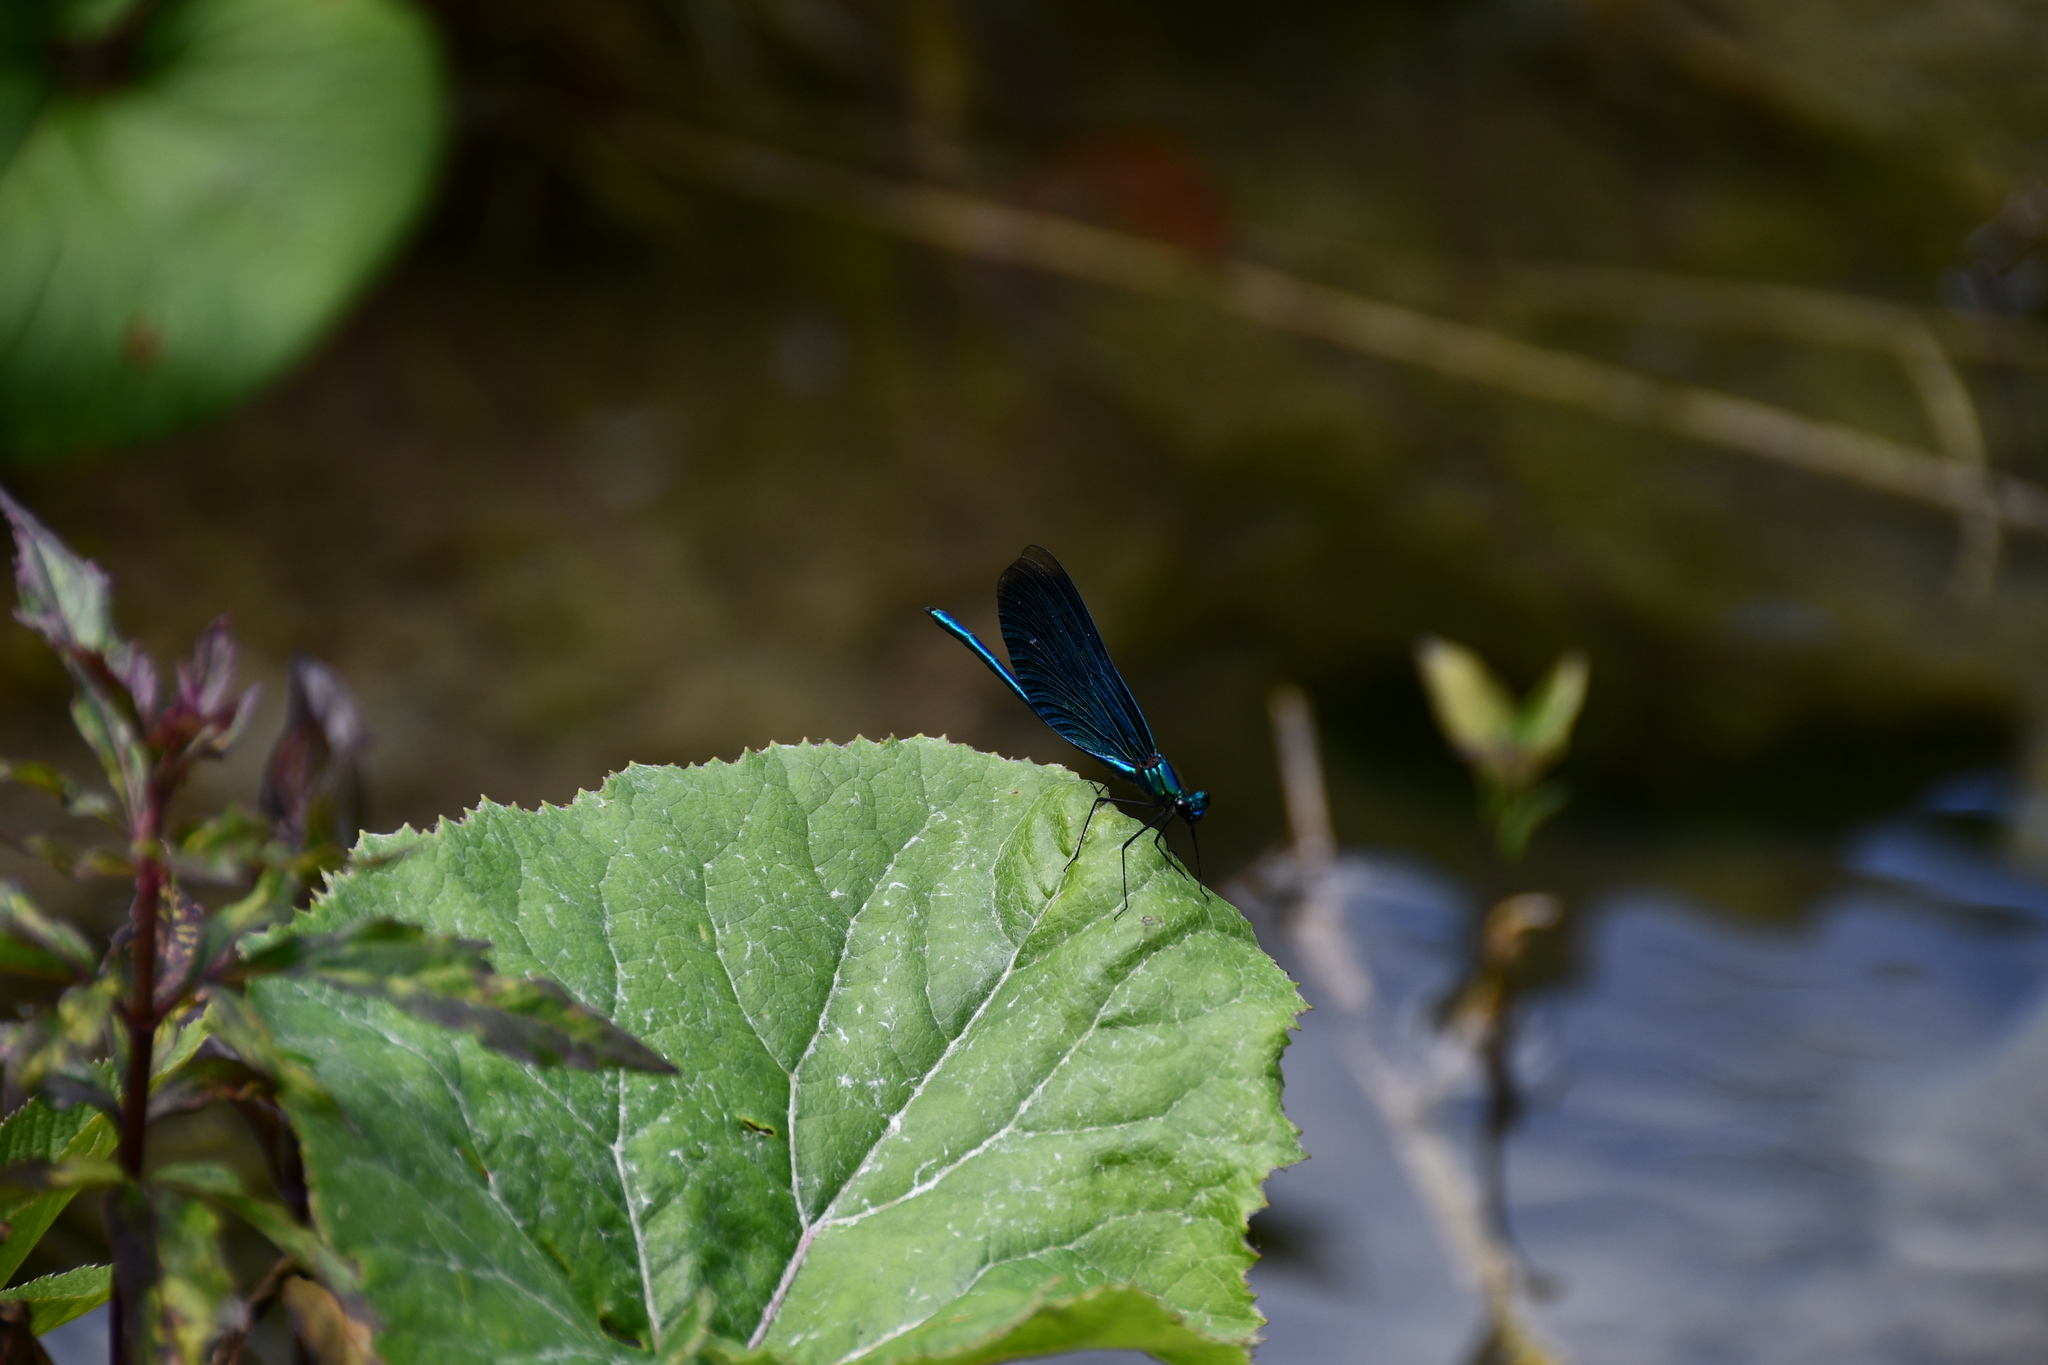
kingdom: Animalia
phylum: Arthropoda
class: Insecta
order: Odonata
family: Calopterygidae
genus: Calopteryx
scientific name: Calopteryx virgo
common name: Beautiful demoiselle
